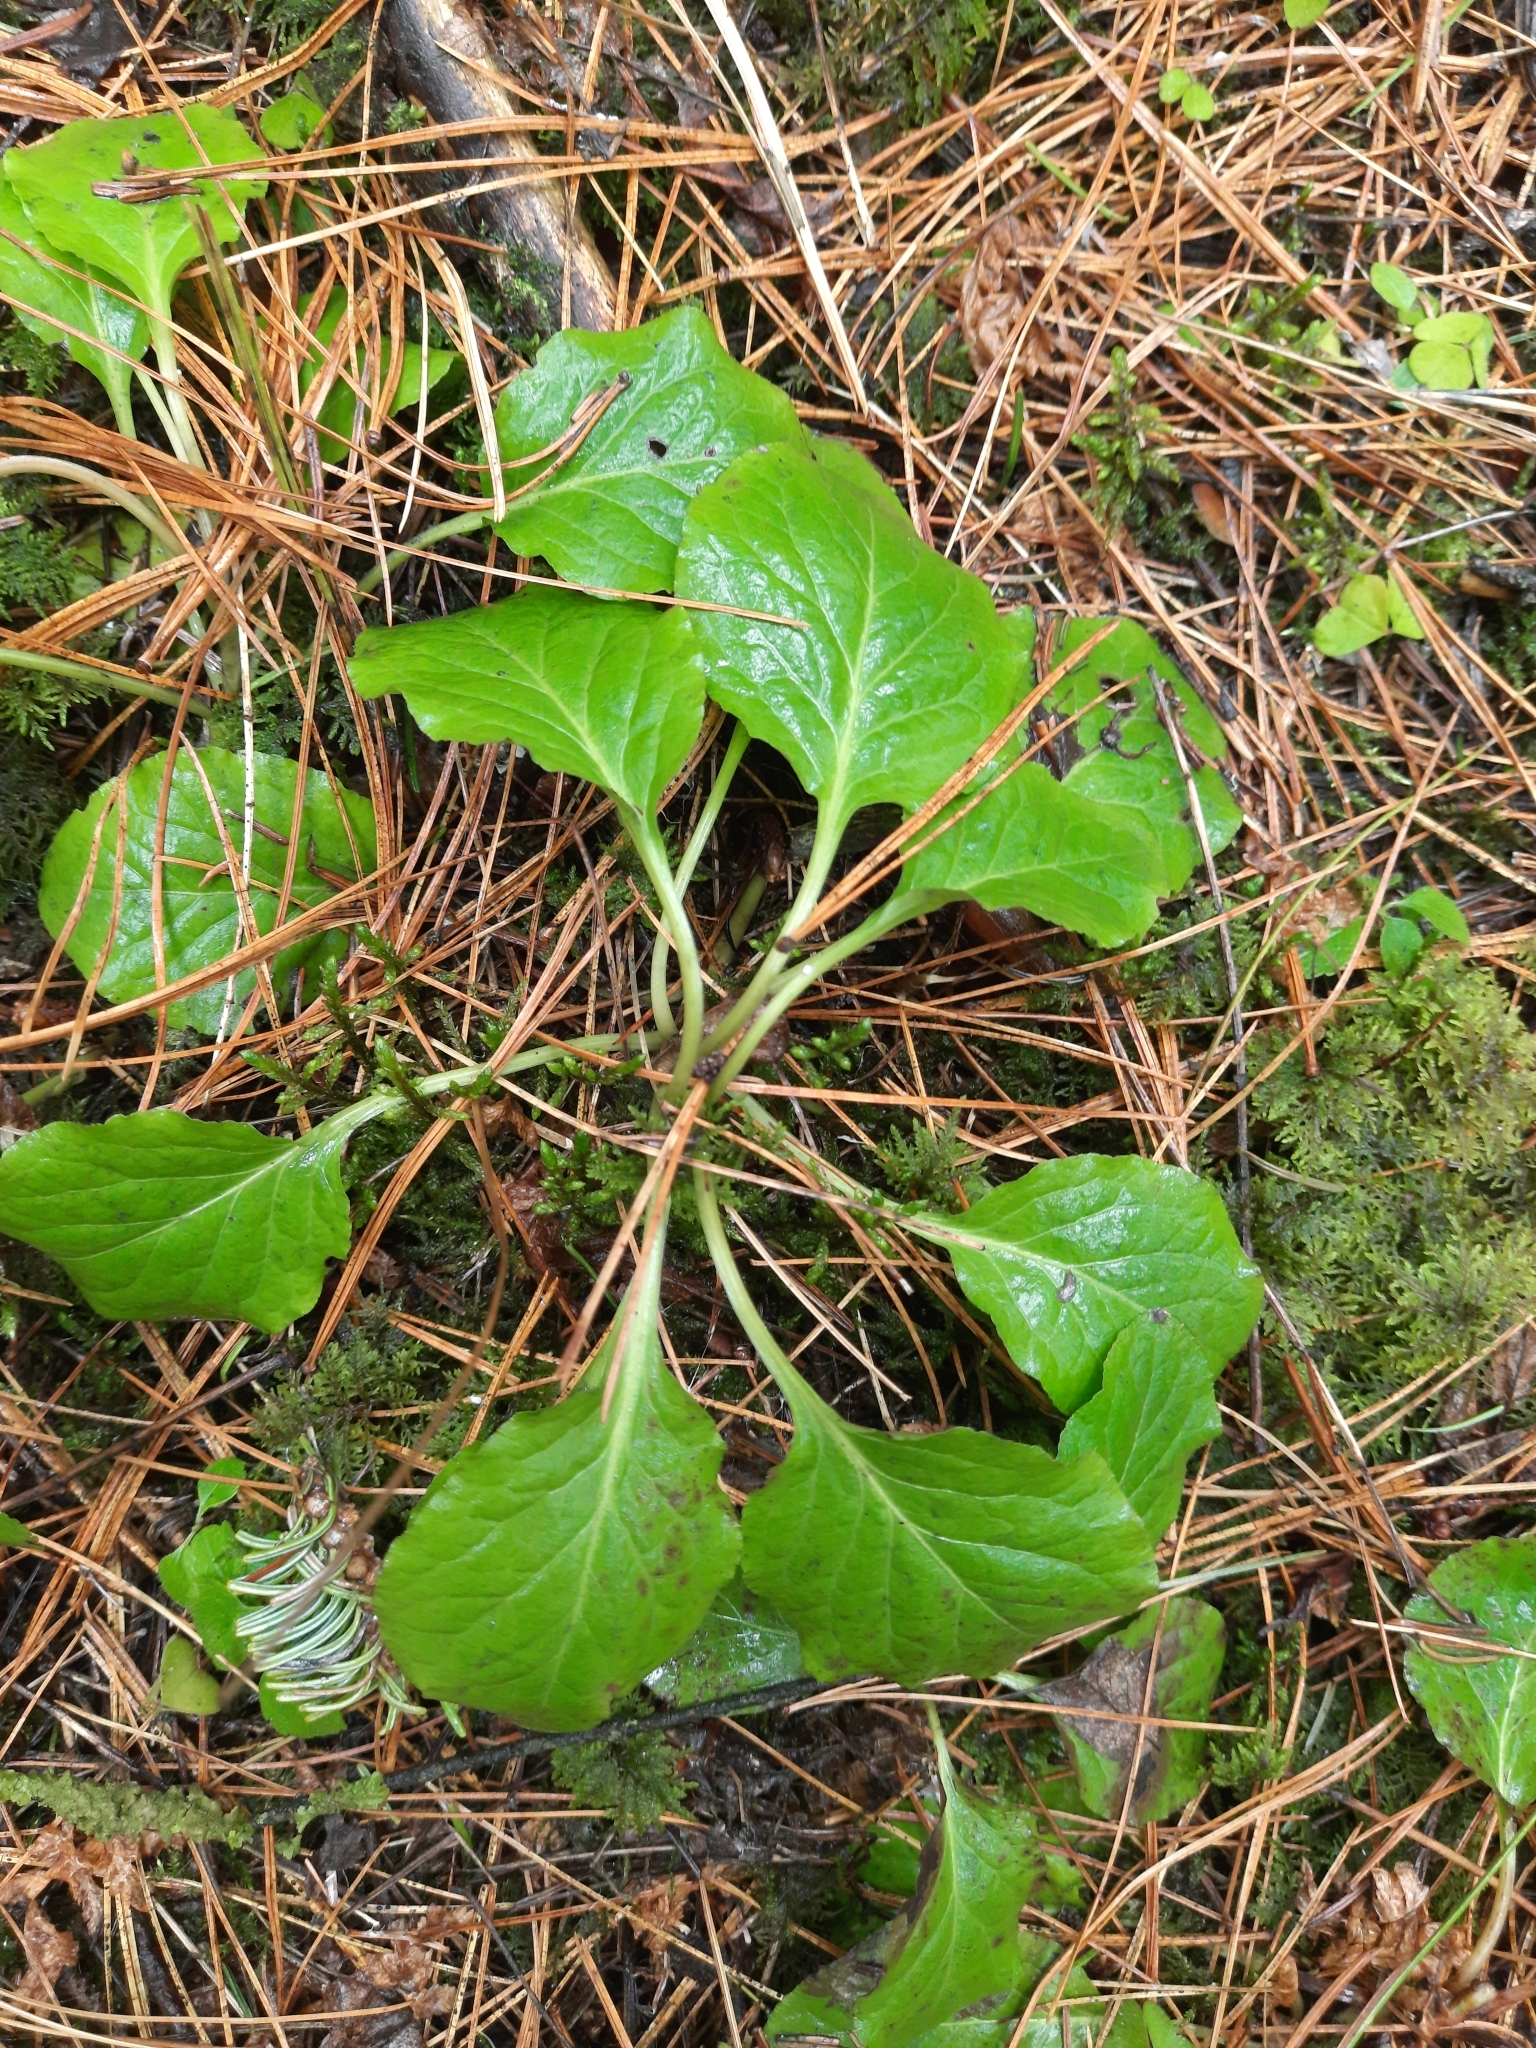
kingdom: Plantae
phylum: Tracheophyta
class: Magnoliopsida
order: Ericales
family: Ericaceae
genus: Orthilia
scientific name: Orthilia secunda
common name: One-sided orthilia
